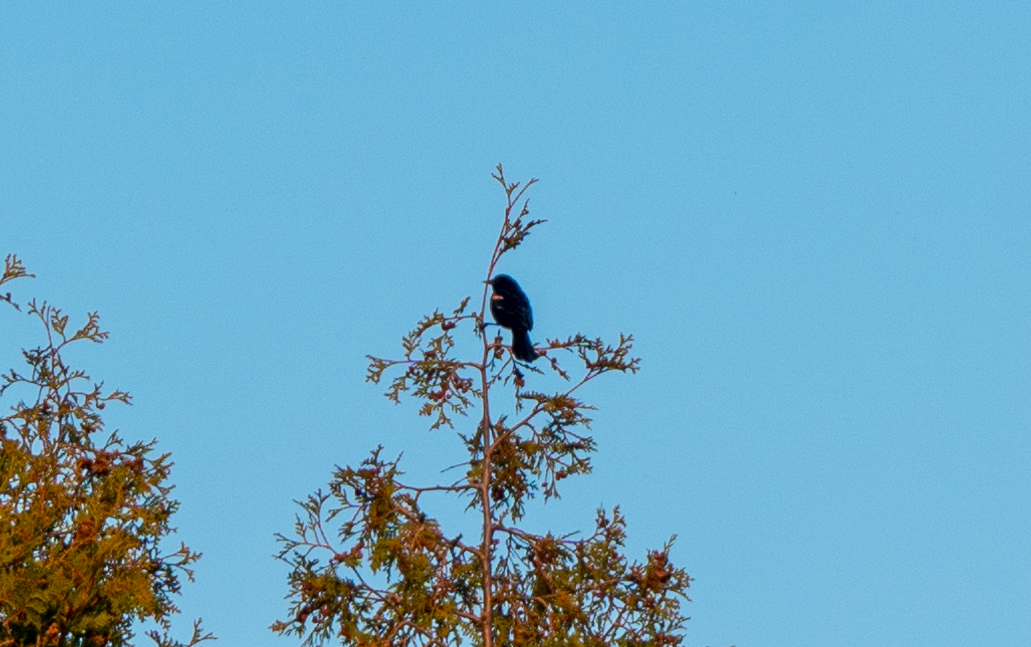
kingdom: Animalia
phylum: Chordata
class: Aves
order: Passeriformes
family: Icteridae
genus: Agelaius
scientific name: Agelaius phoeniceus
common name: Red-winged blackbird
